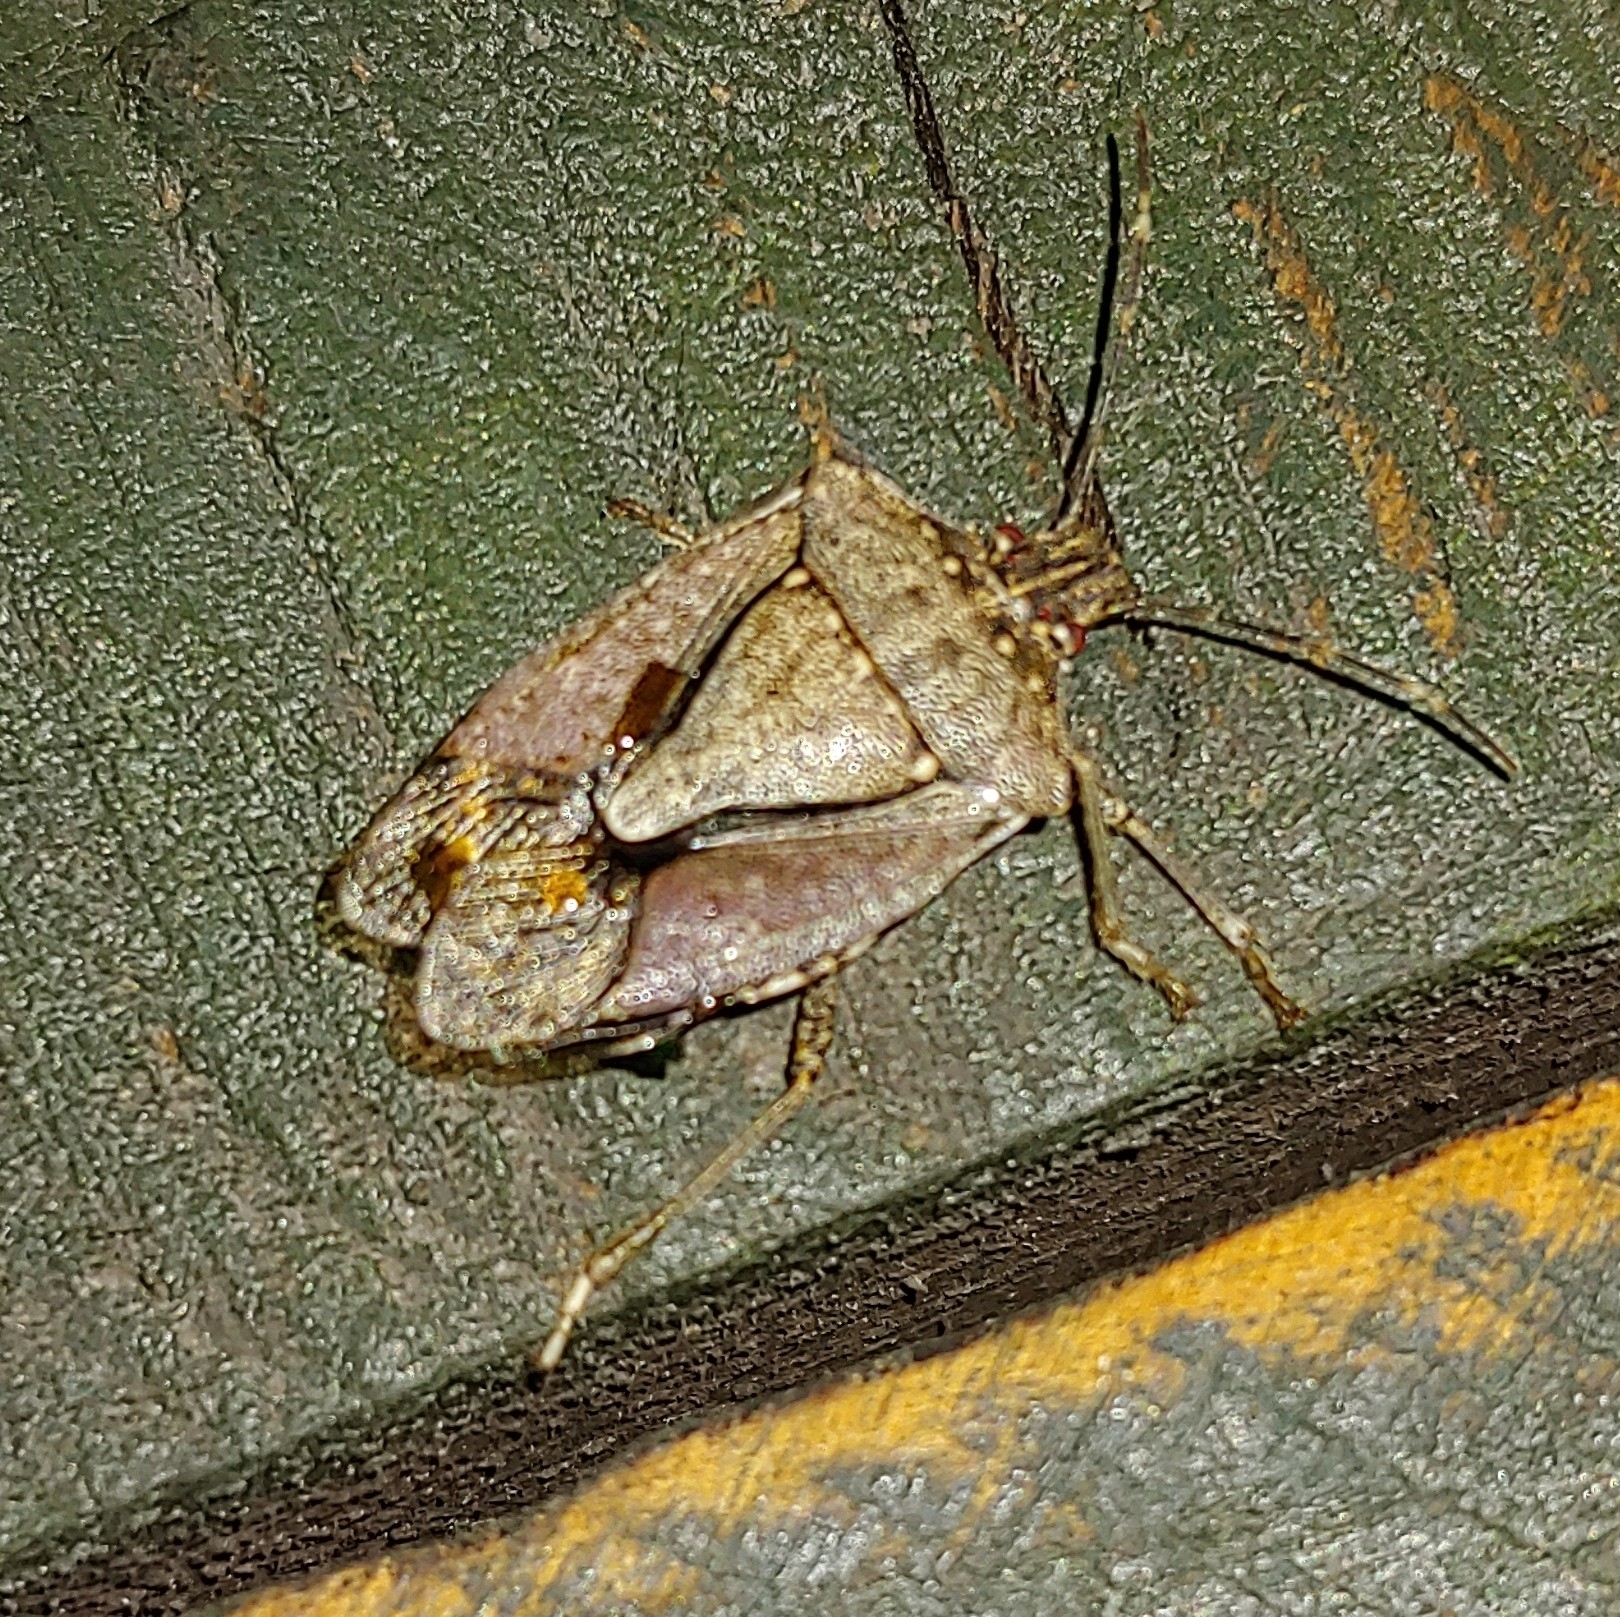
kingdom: Animalia
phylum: Arthropoda
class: Insecta
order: Hemiptera
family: Pentatomidae
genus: Halyomorpha
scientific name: Halyomorpha halys
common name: Brown marmorated stink bug
